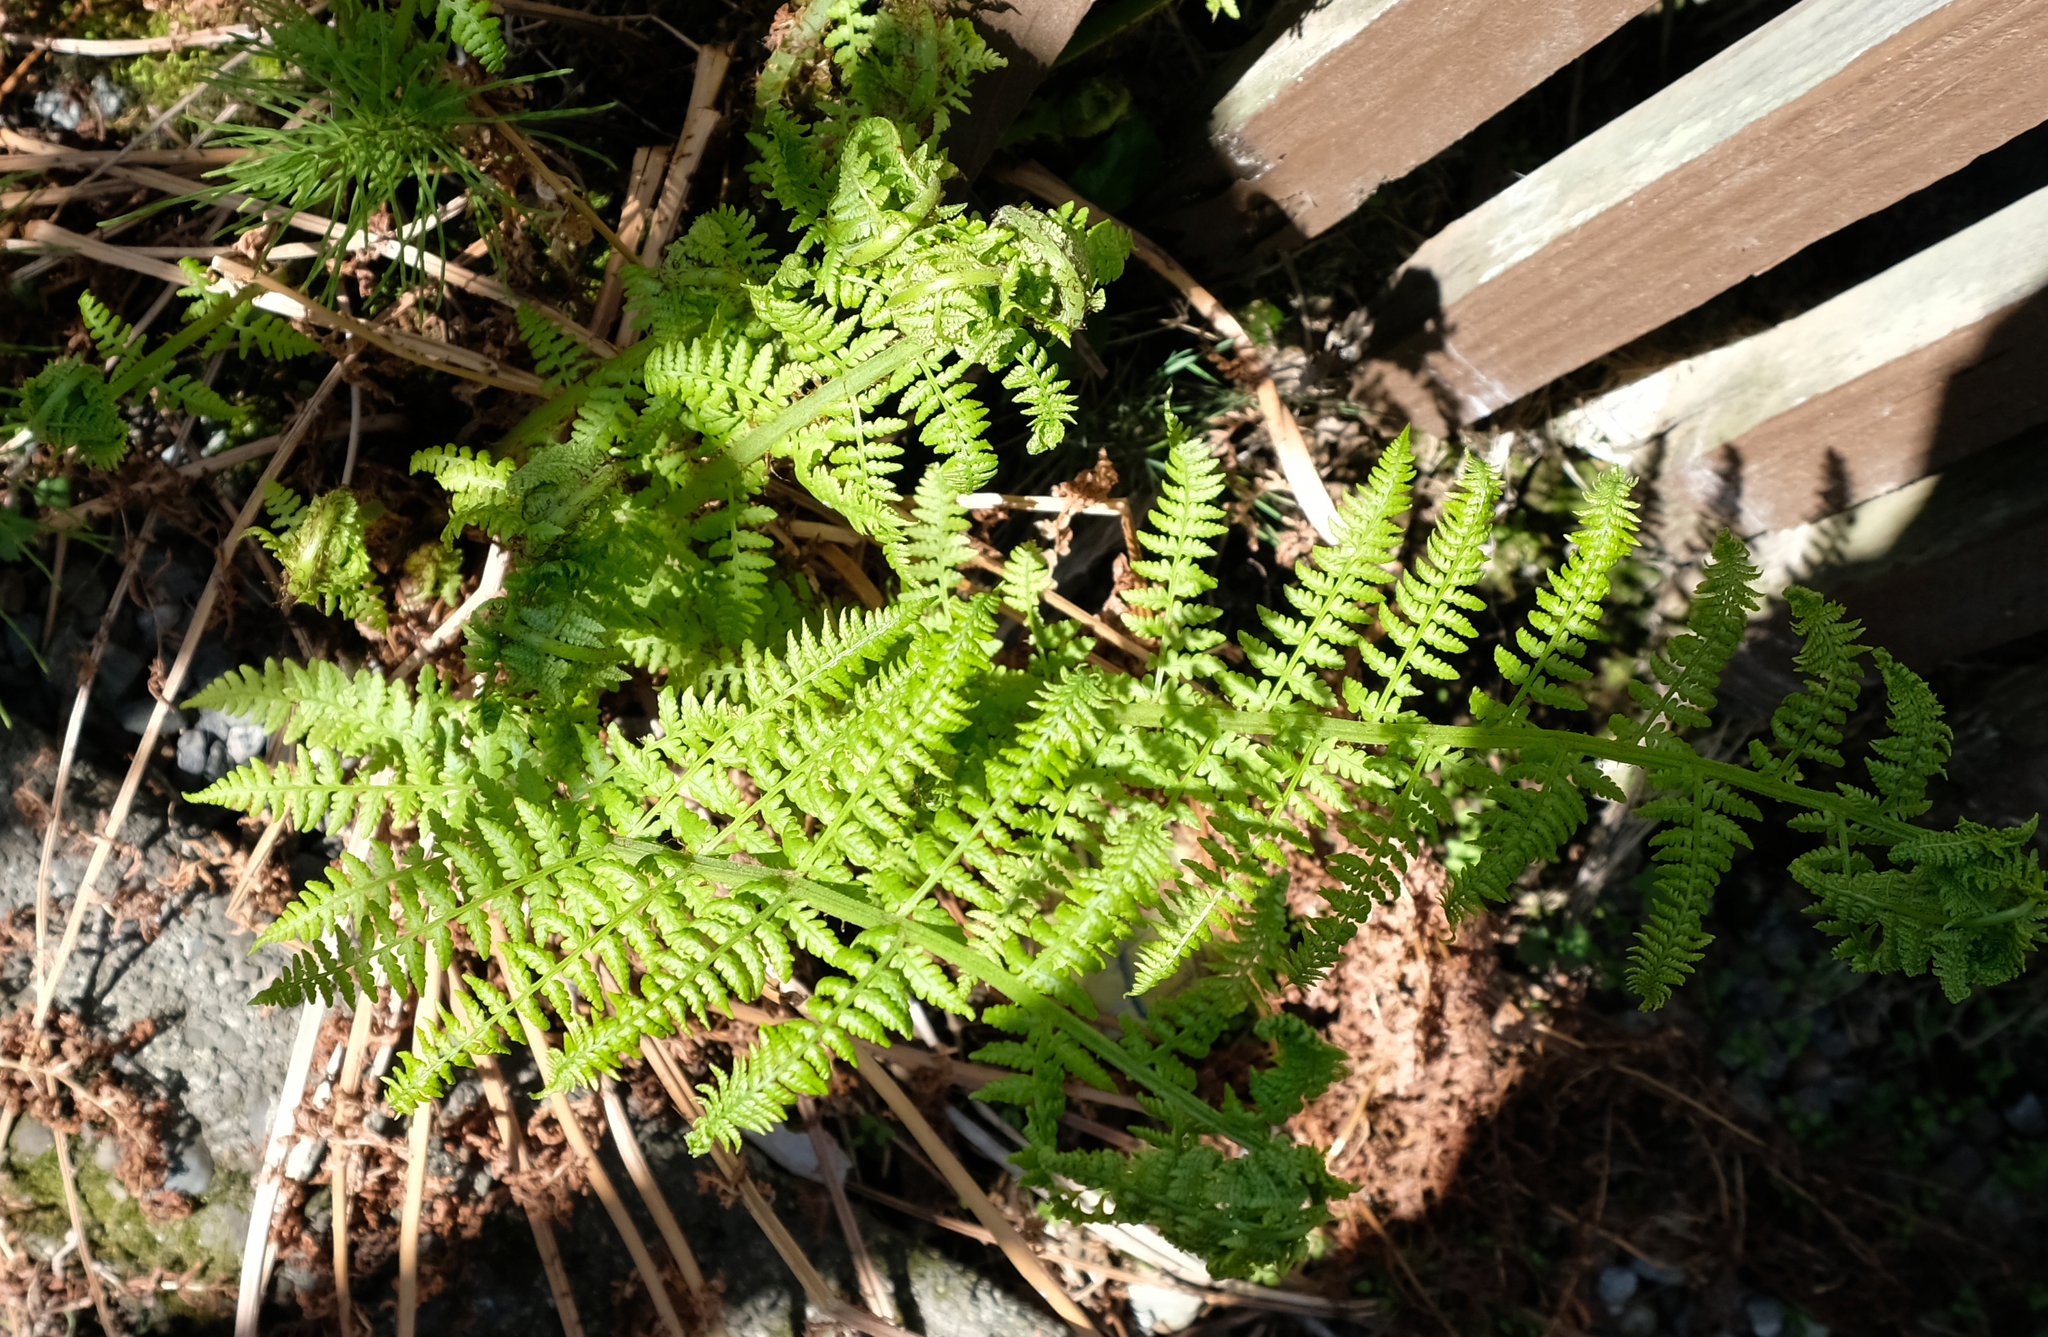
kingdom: Plantae
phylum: Tracheophyta
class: Polypodiopsida
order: Polypodiales
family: Athyriaceae
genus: Athyrium
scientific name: Athyrium filix-femina
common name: Lady fern
